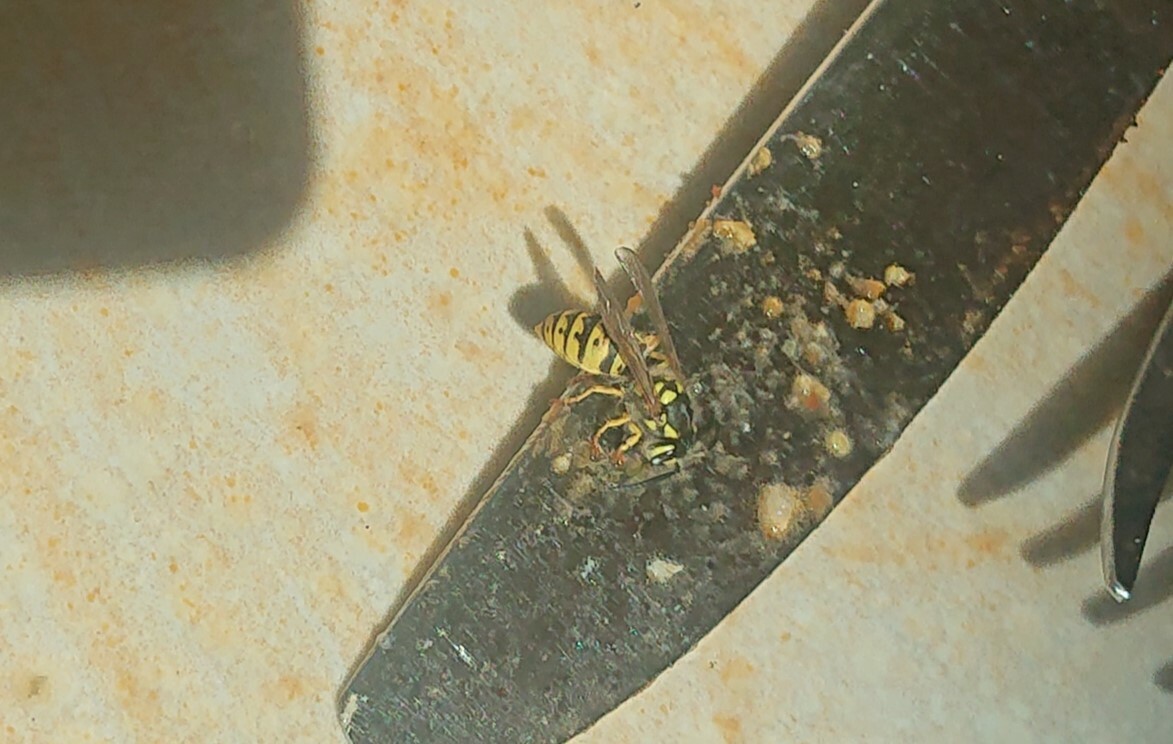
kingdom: Animalia
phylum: Arthropoda
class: Insecta
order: Hymenoptera
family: Vespidae
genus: Vespula
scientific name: Vespula germanica
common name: German wasp
